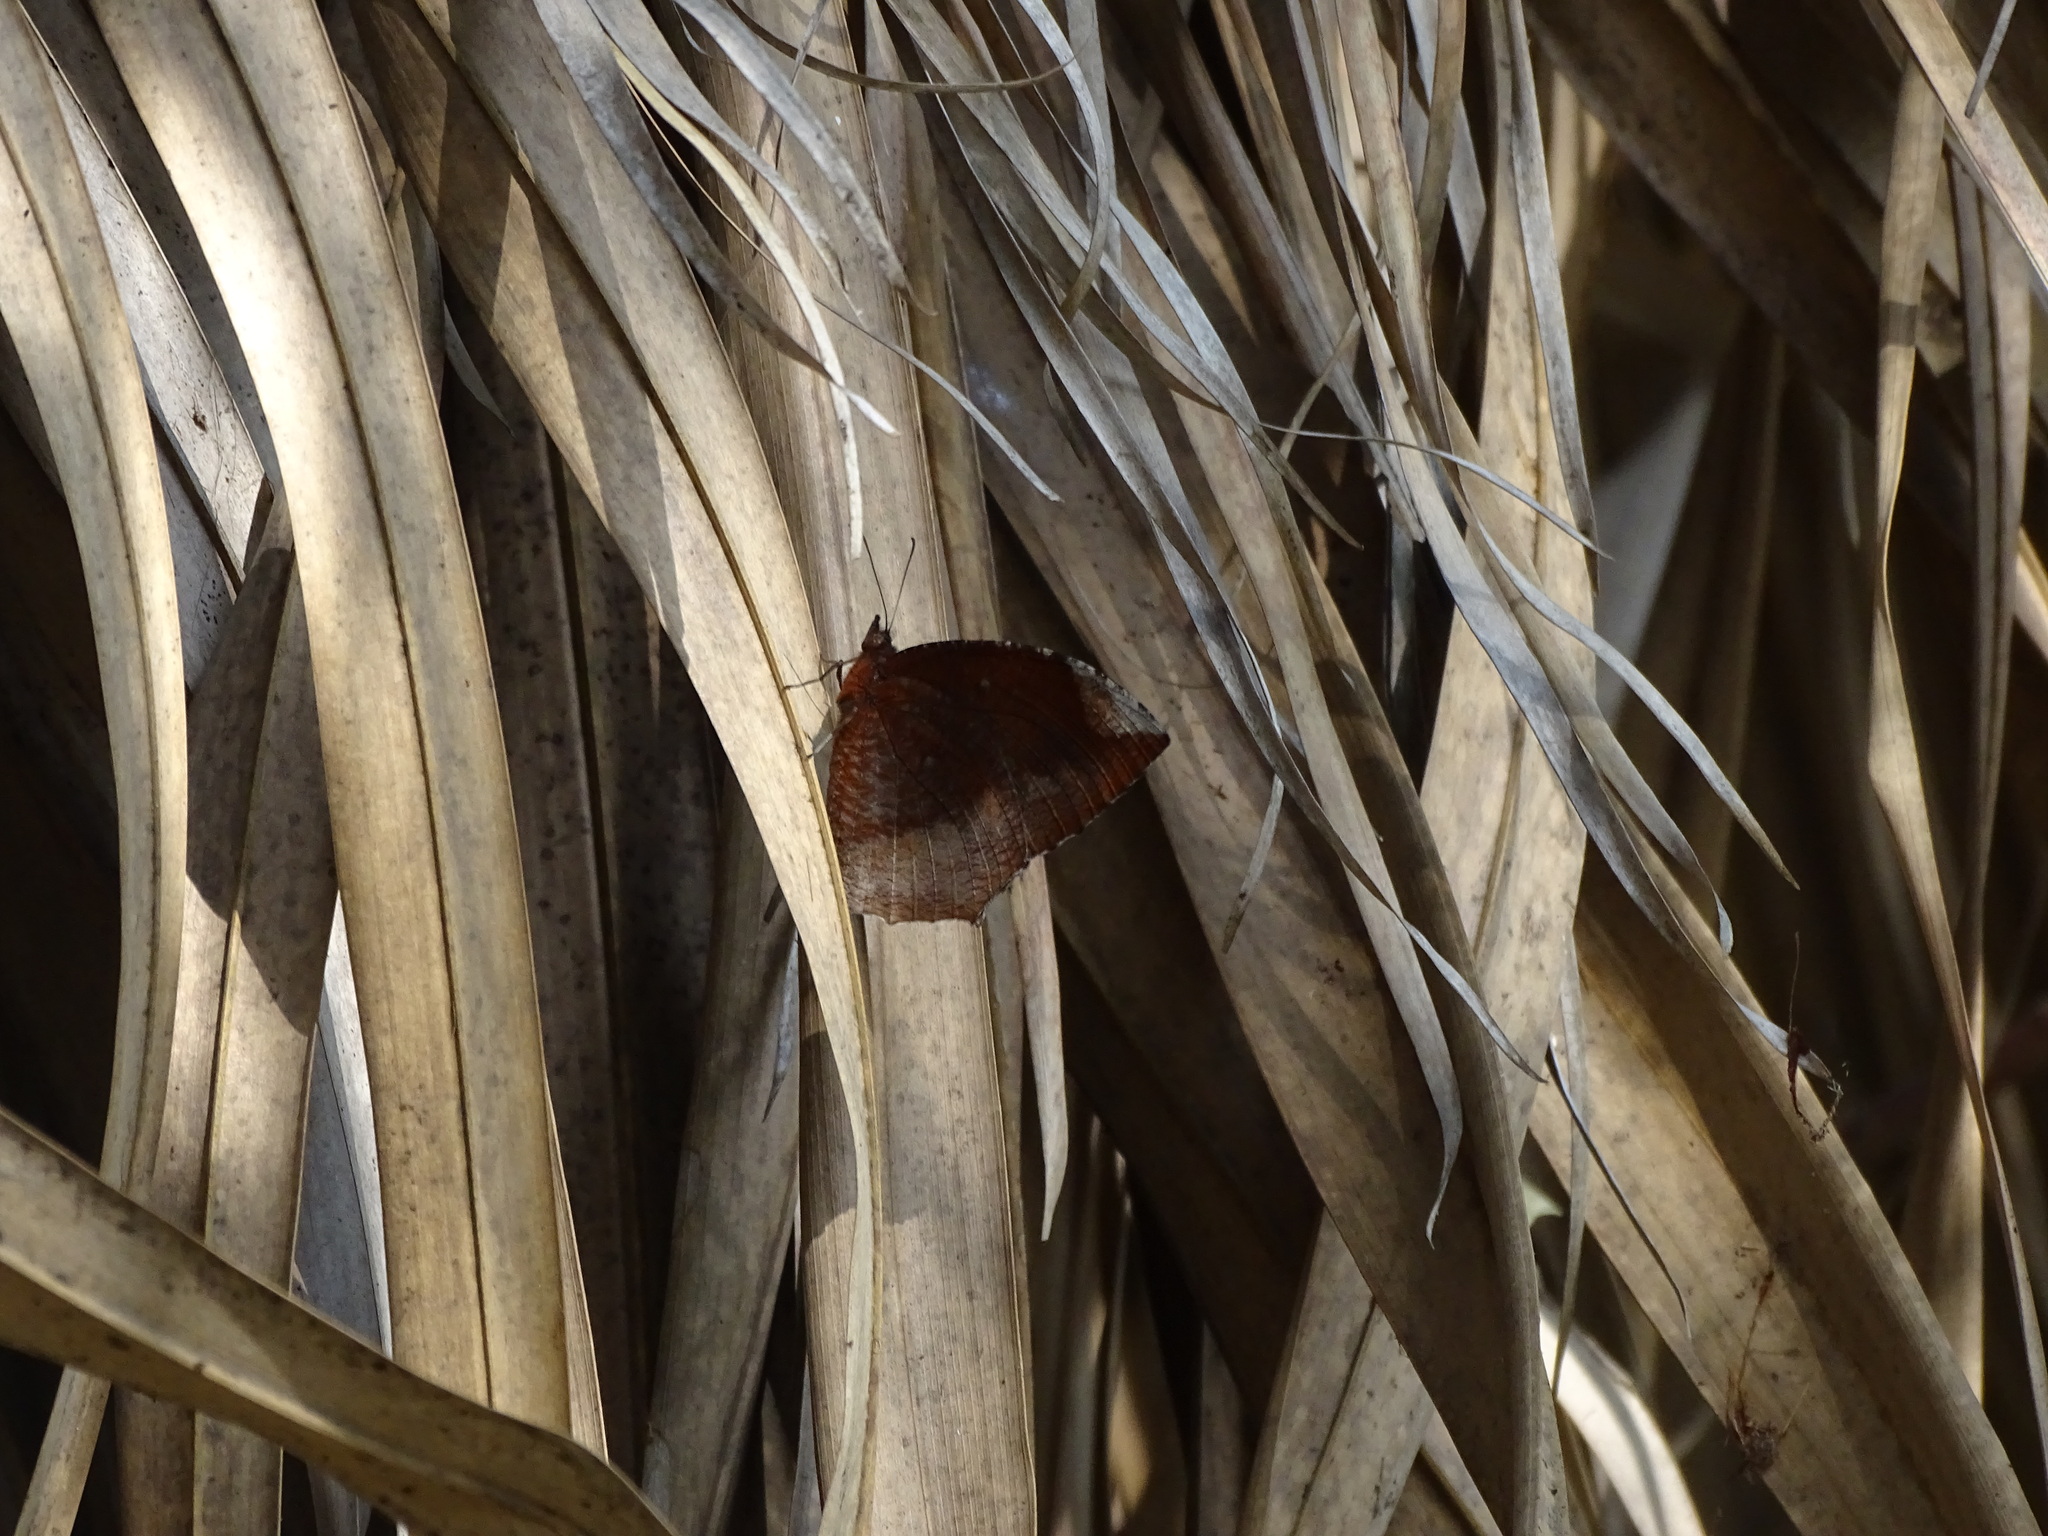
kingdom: Animalia
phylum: Arthropoda
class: Insecta
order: Lepidoptera
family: Nymphalidae
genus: Elymnias
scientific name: Elymnias hypermnestra
